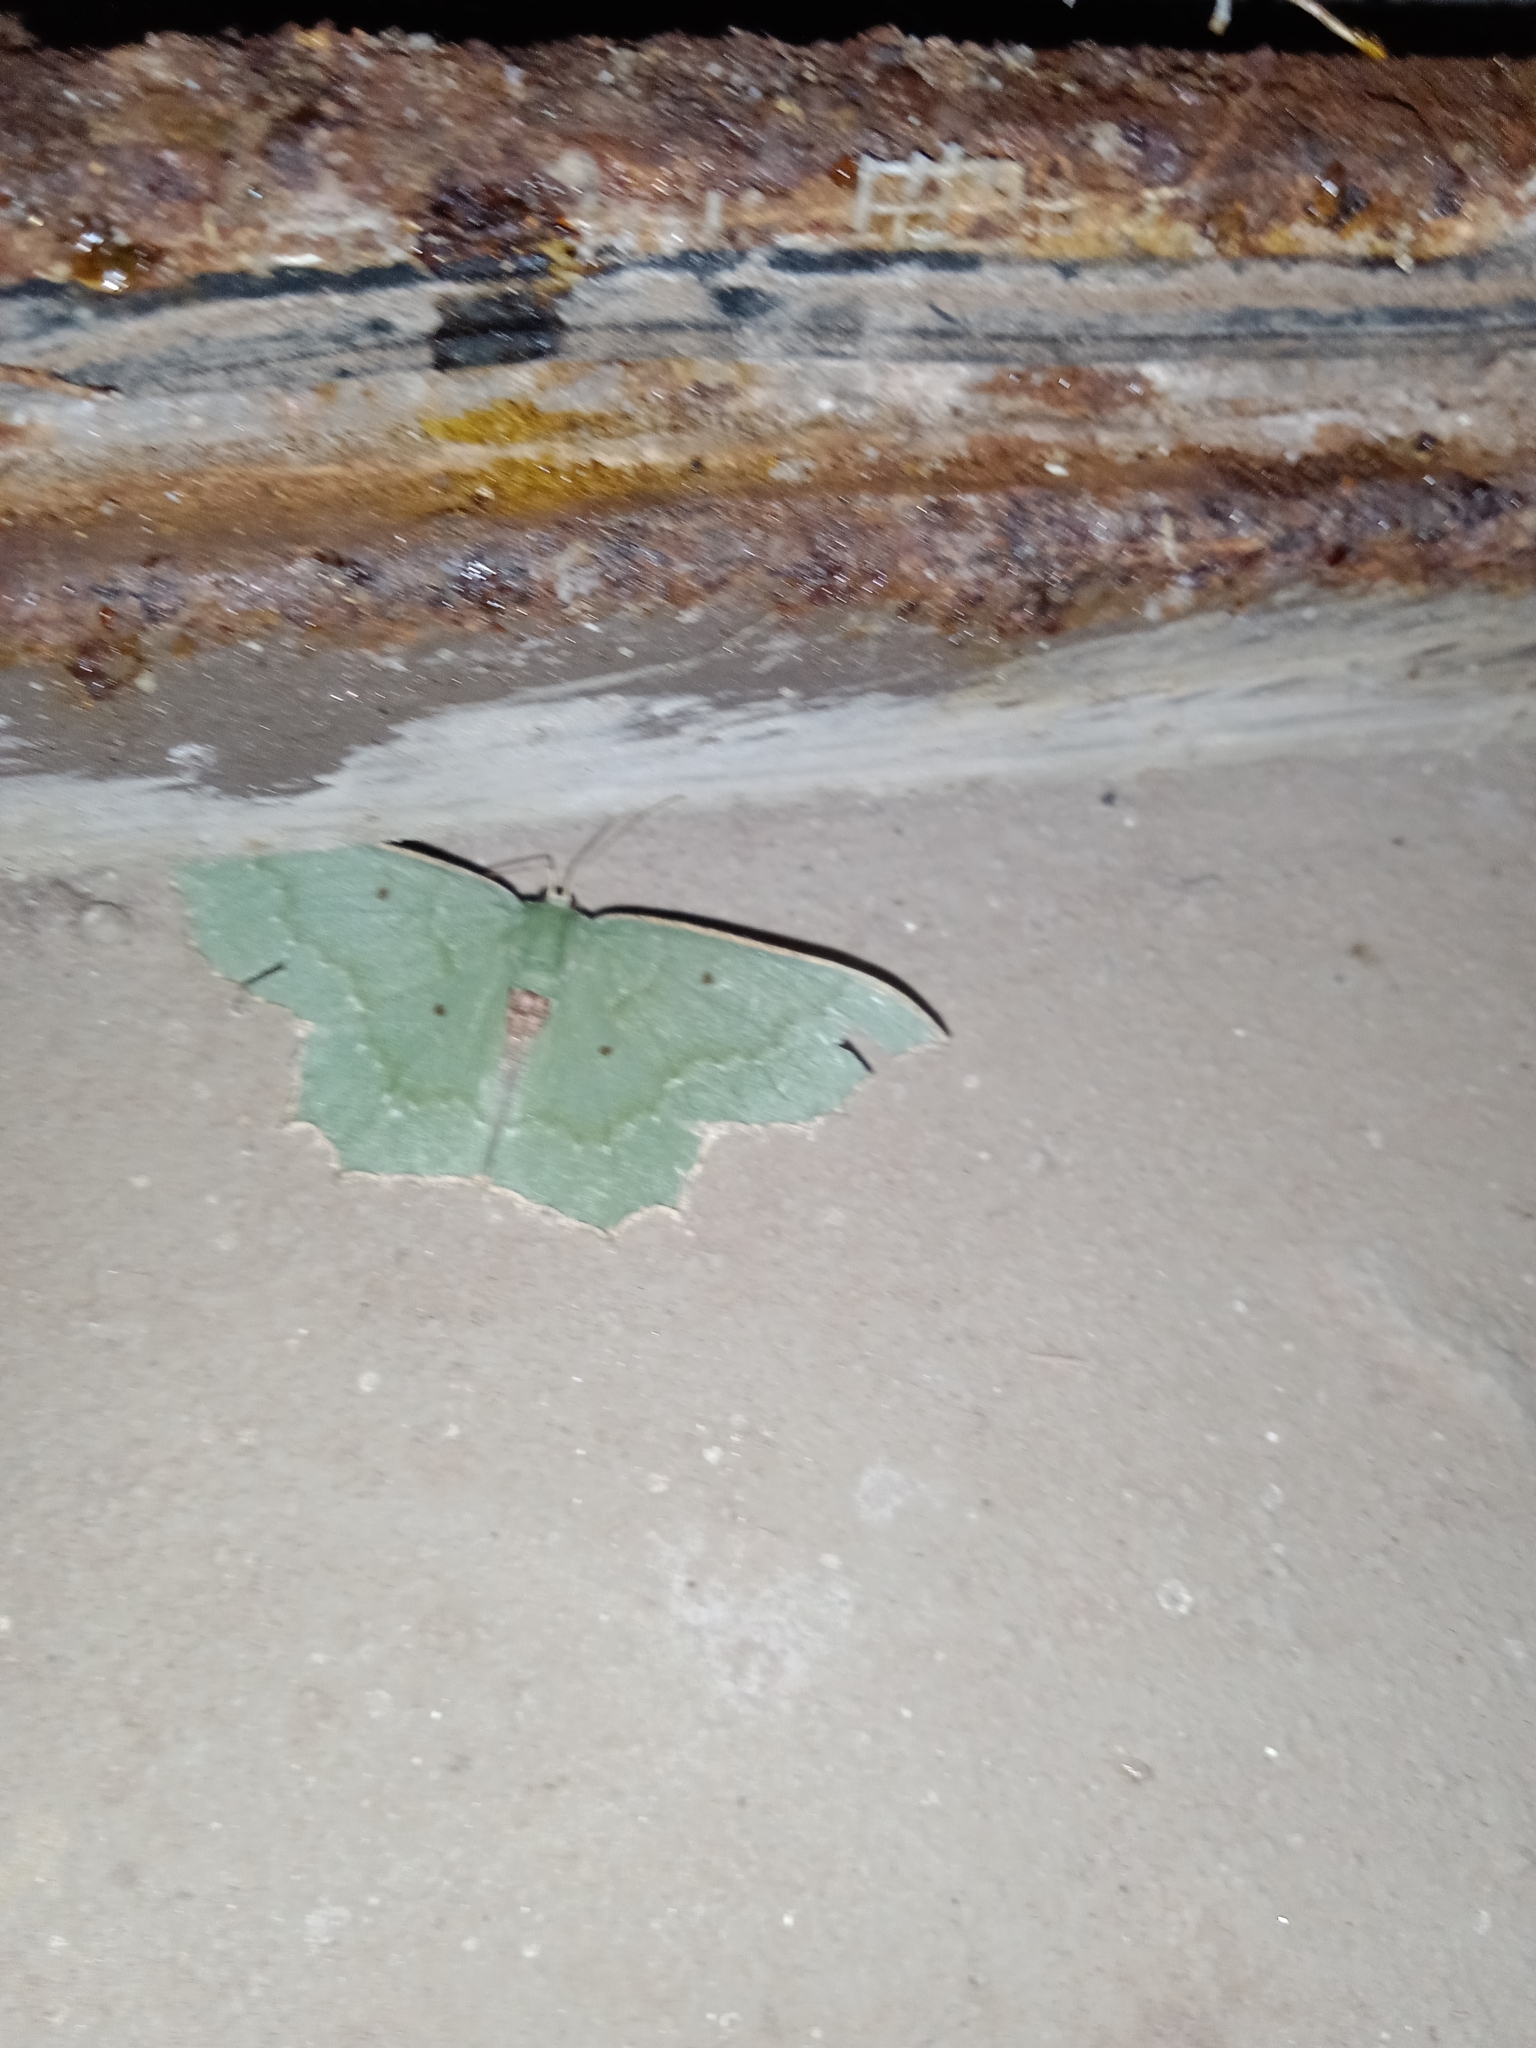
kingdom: Animalia
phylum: Arthropoda
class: Insecta
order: Lepidoptera
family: Geometridae
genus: Episothalma
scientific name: Episothalma robustaria
